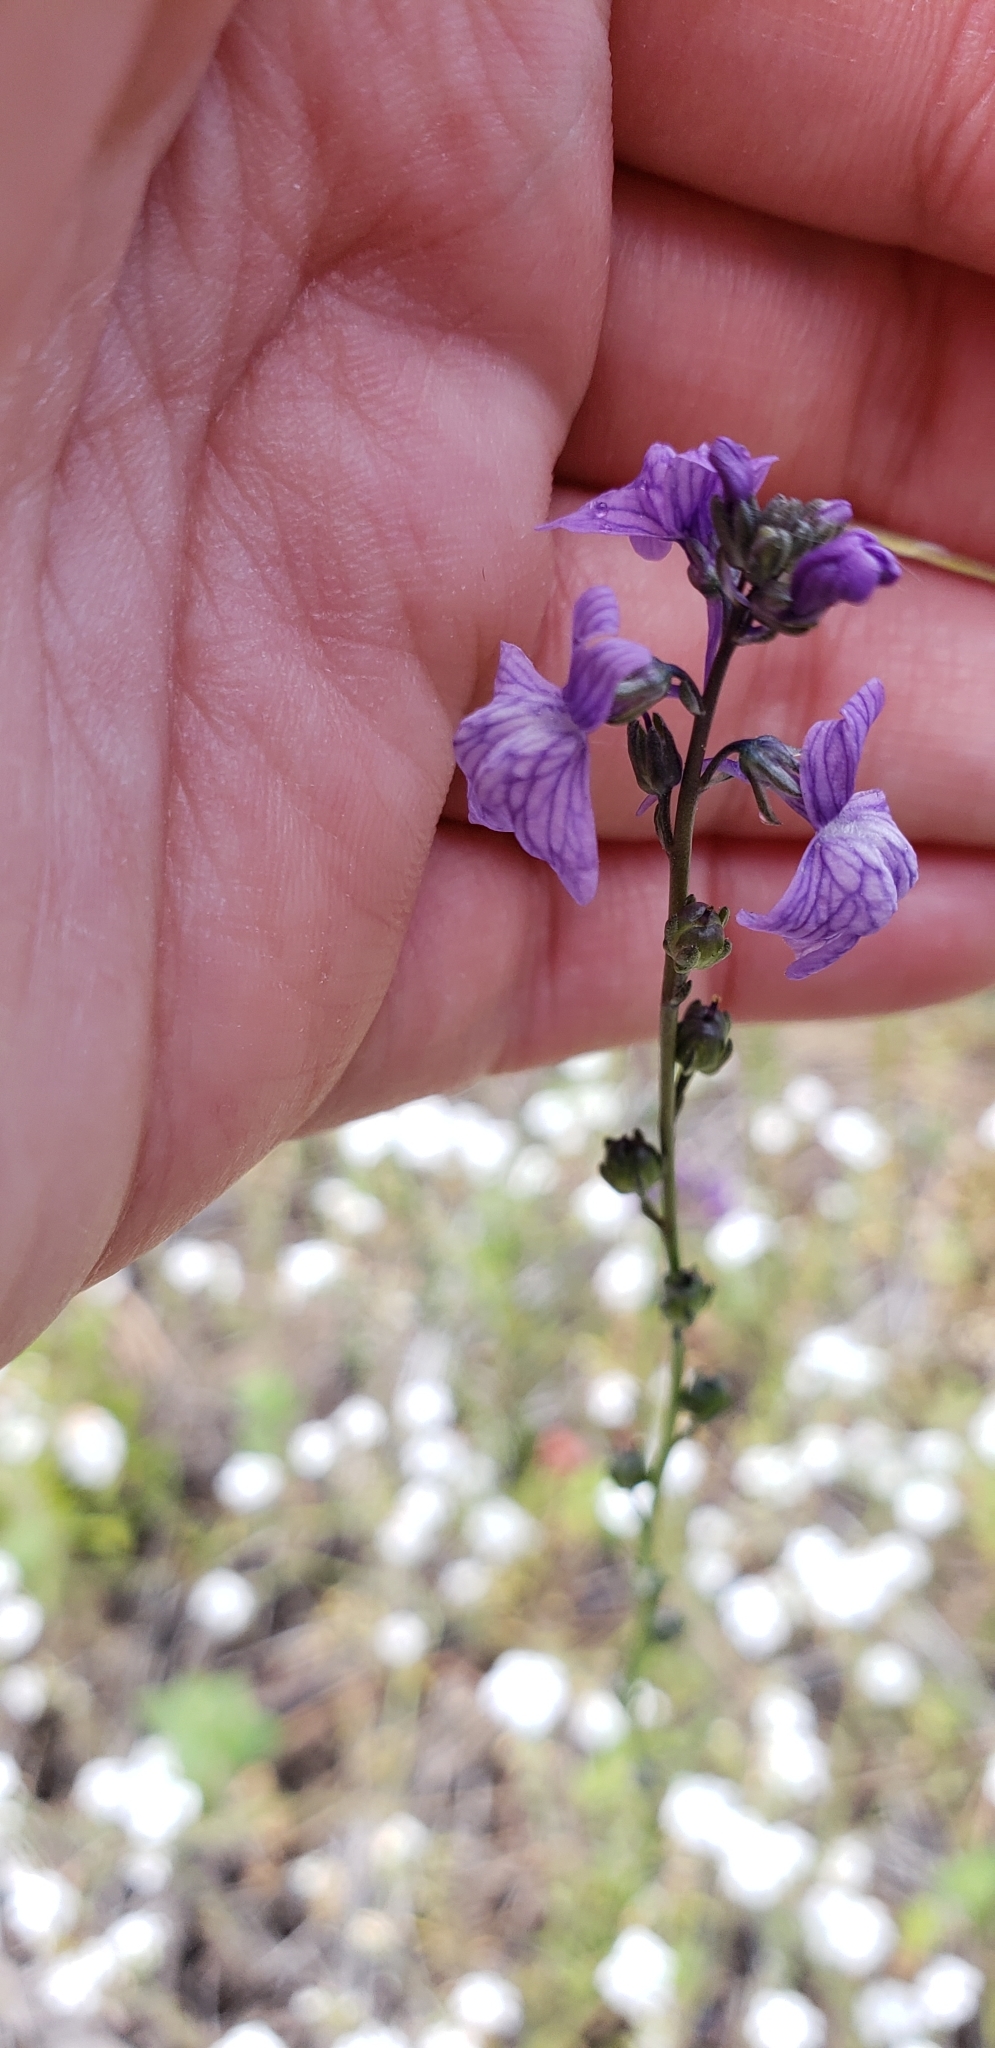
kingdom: Plantae
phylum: Tracheophyta
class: Magnoliopsida
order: Lamiales
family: Plantaginaceae
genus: Nuttallanthus
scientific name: Nuttallanthus texanus
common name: Texas toadflax
